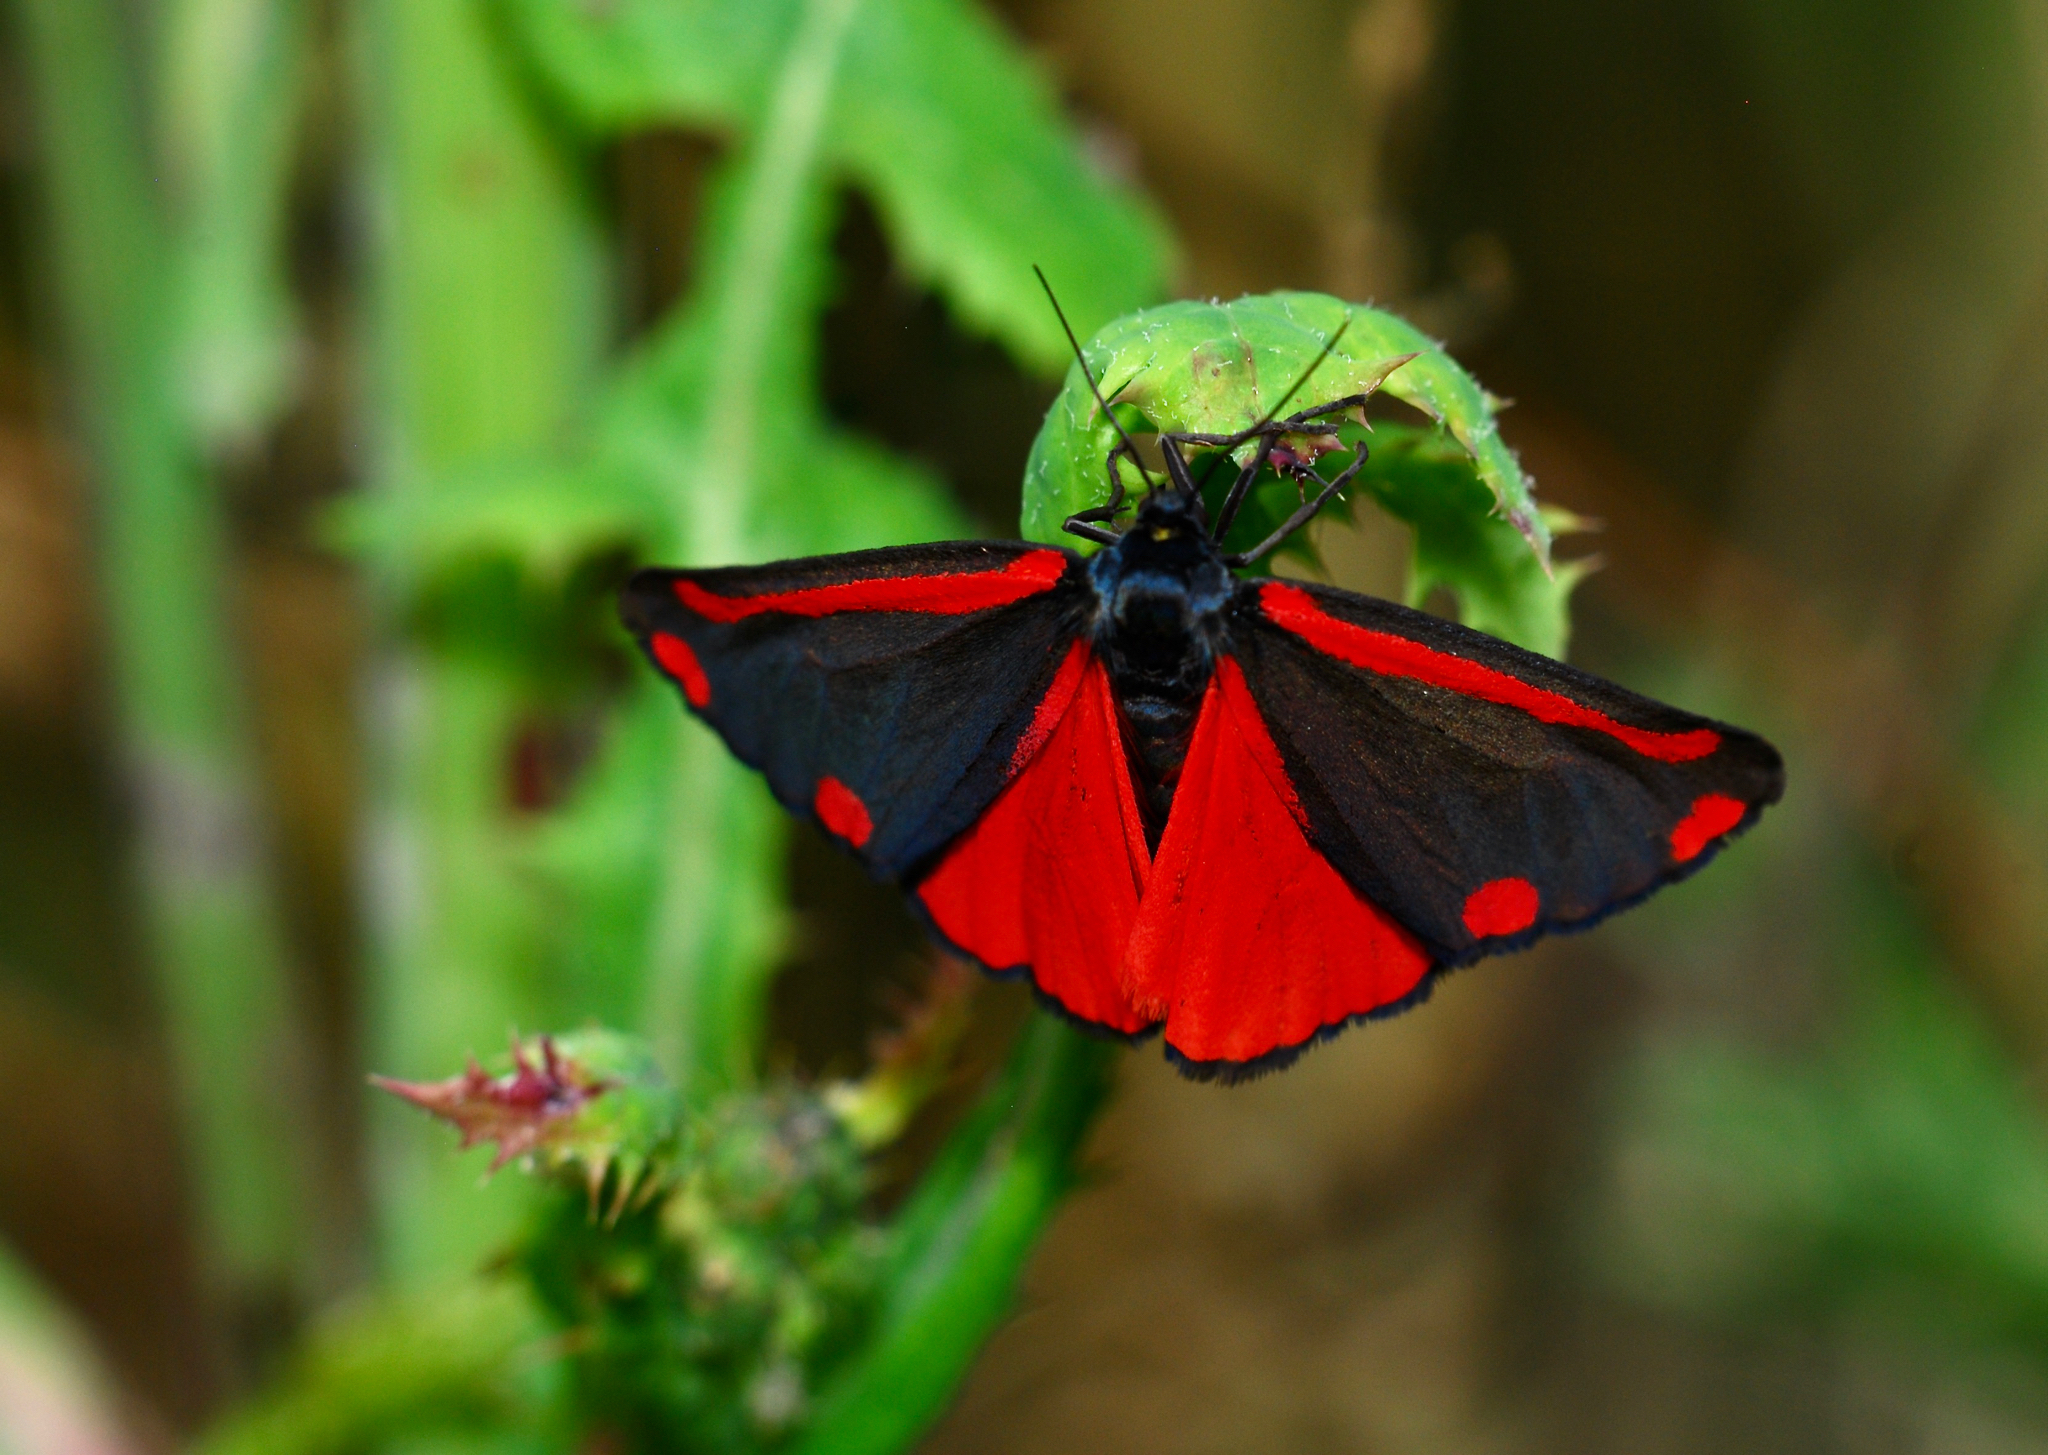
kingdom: Animalia
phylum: Arthropoda
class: Insecta
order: Lepidoptera
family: Erebidae
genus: Tyria
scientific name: Tyria jacobaeae
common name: Cinnabar
